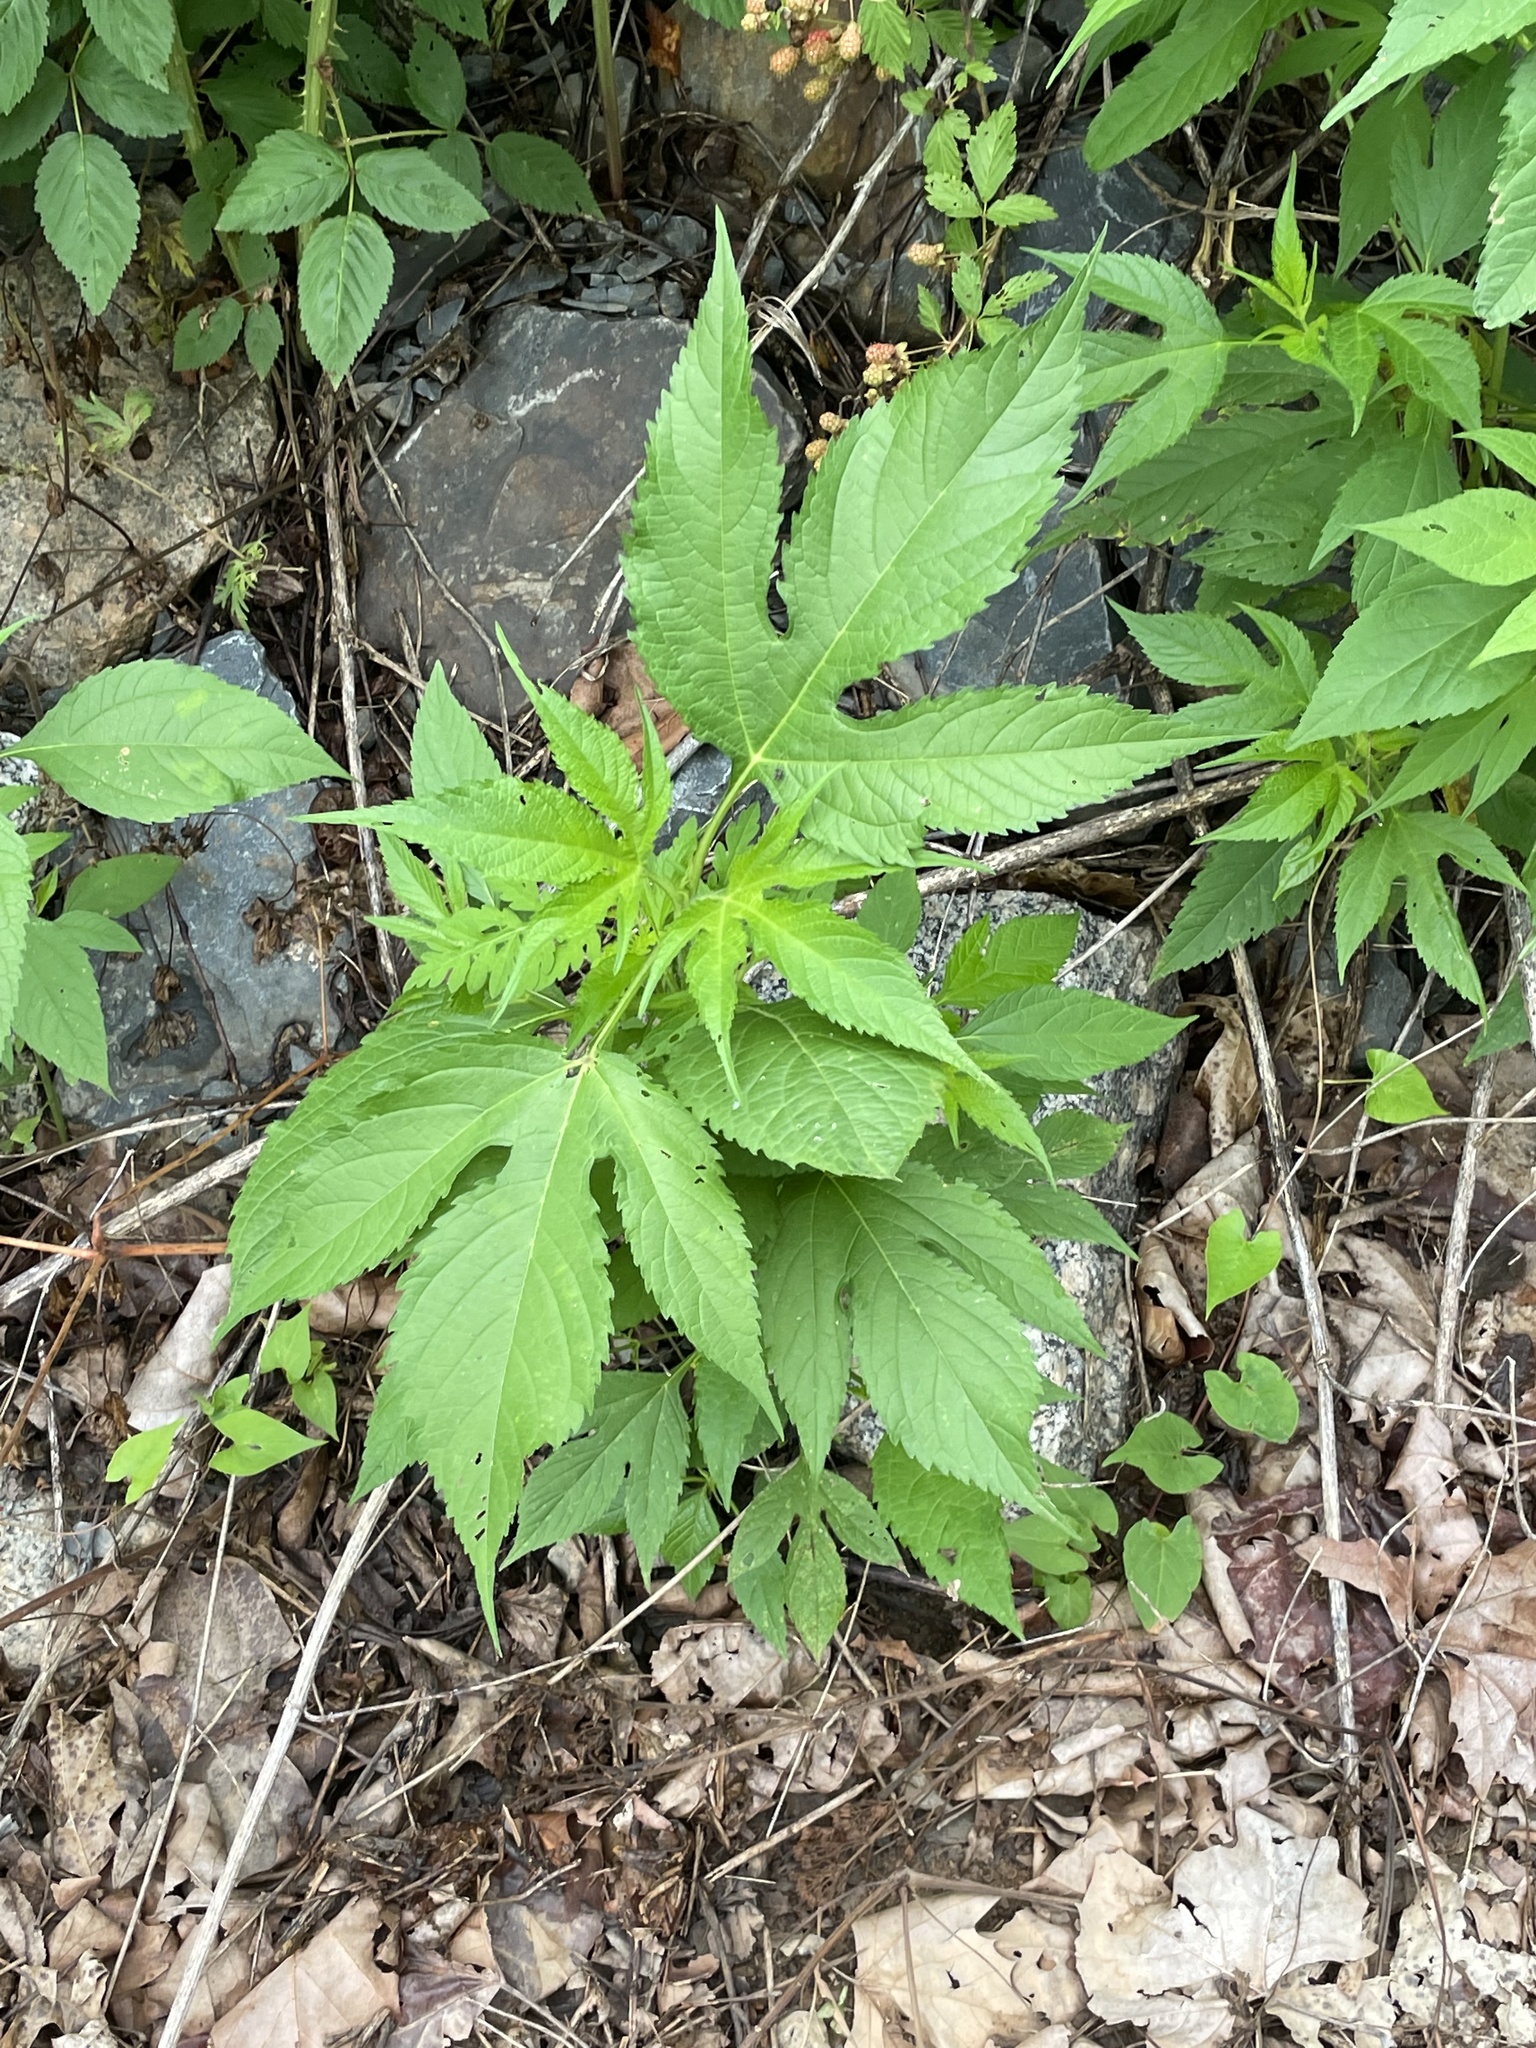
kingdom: Plantae
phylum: Tracheophyta
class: Magnoliopsida
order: Asterales
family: Asteraceae
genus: Ambrosia
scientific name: Ambrosia trifida
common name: Giant ragweed
